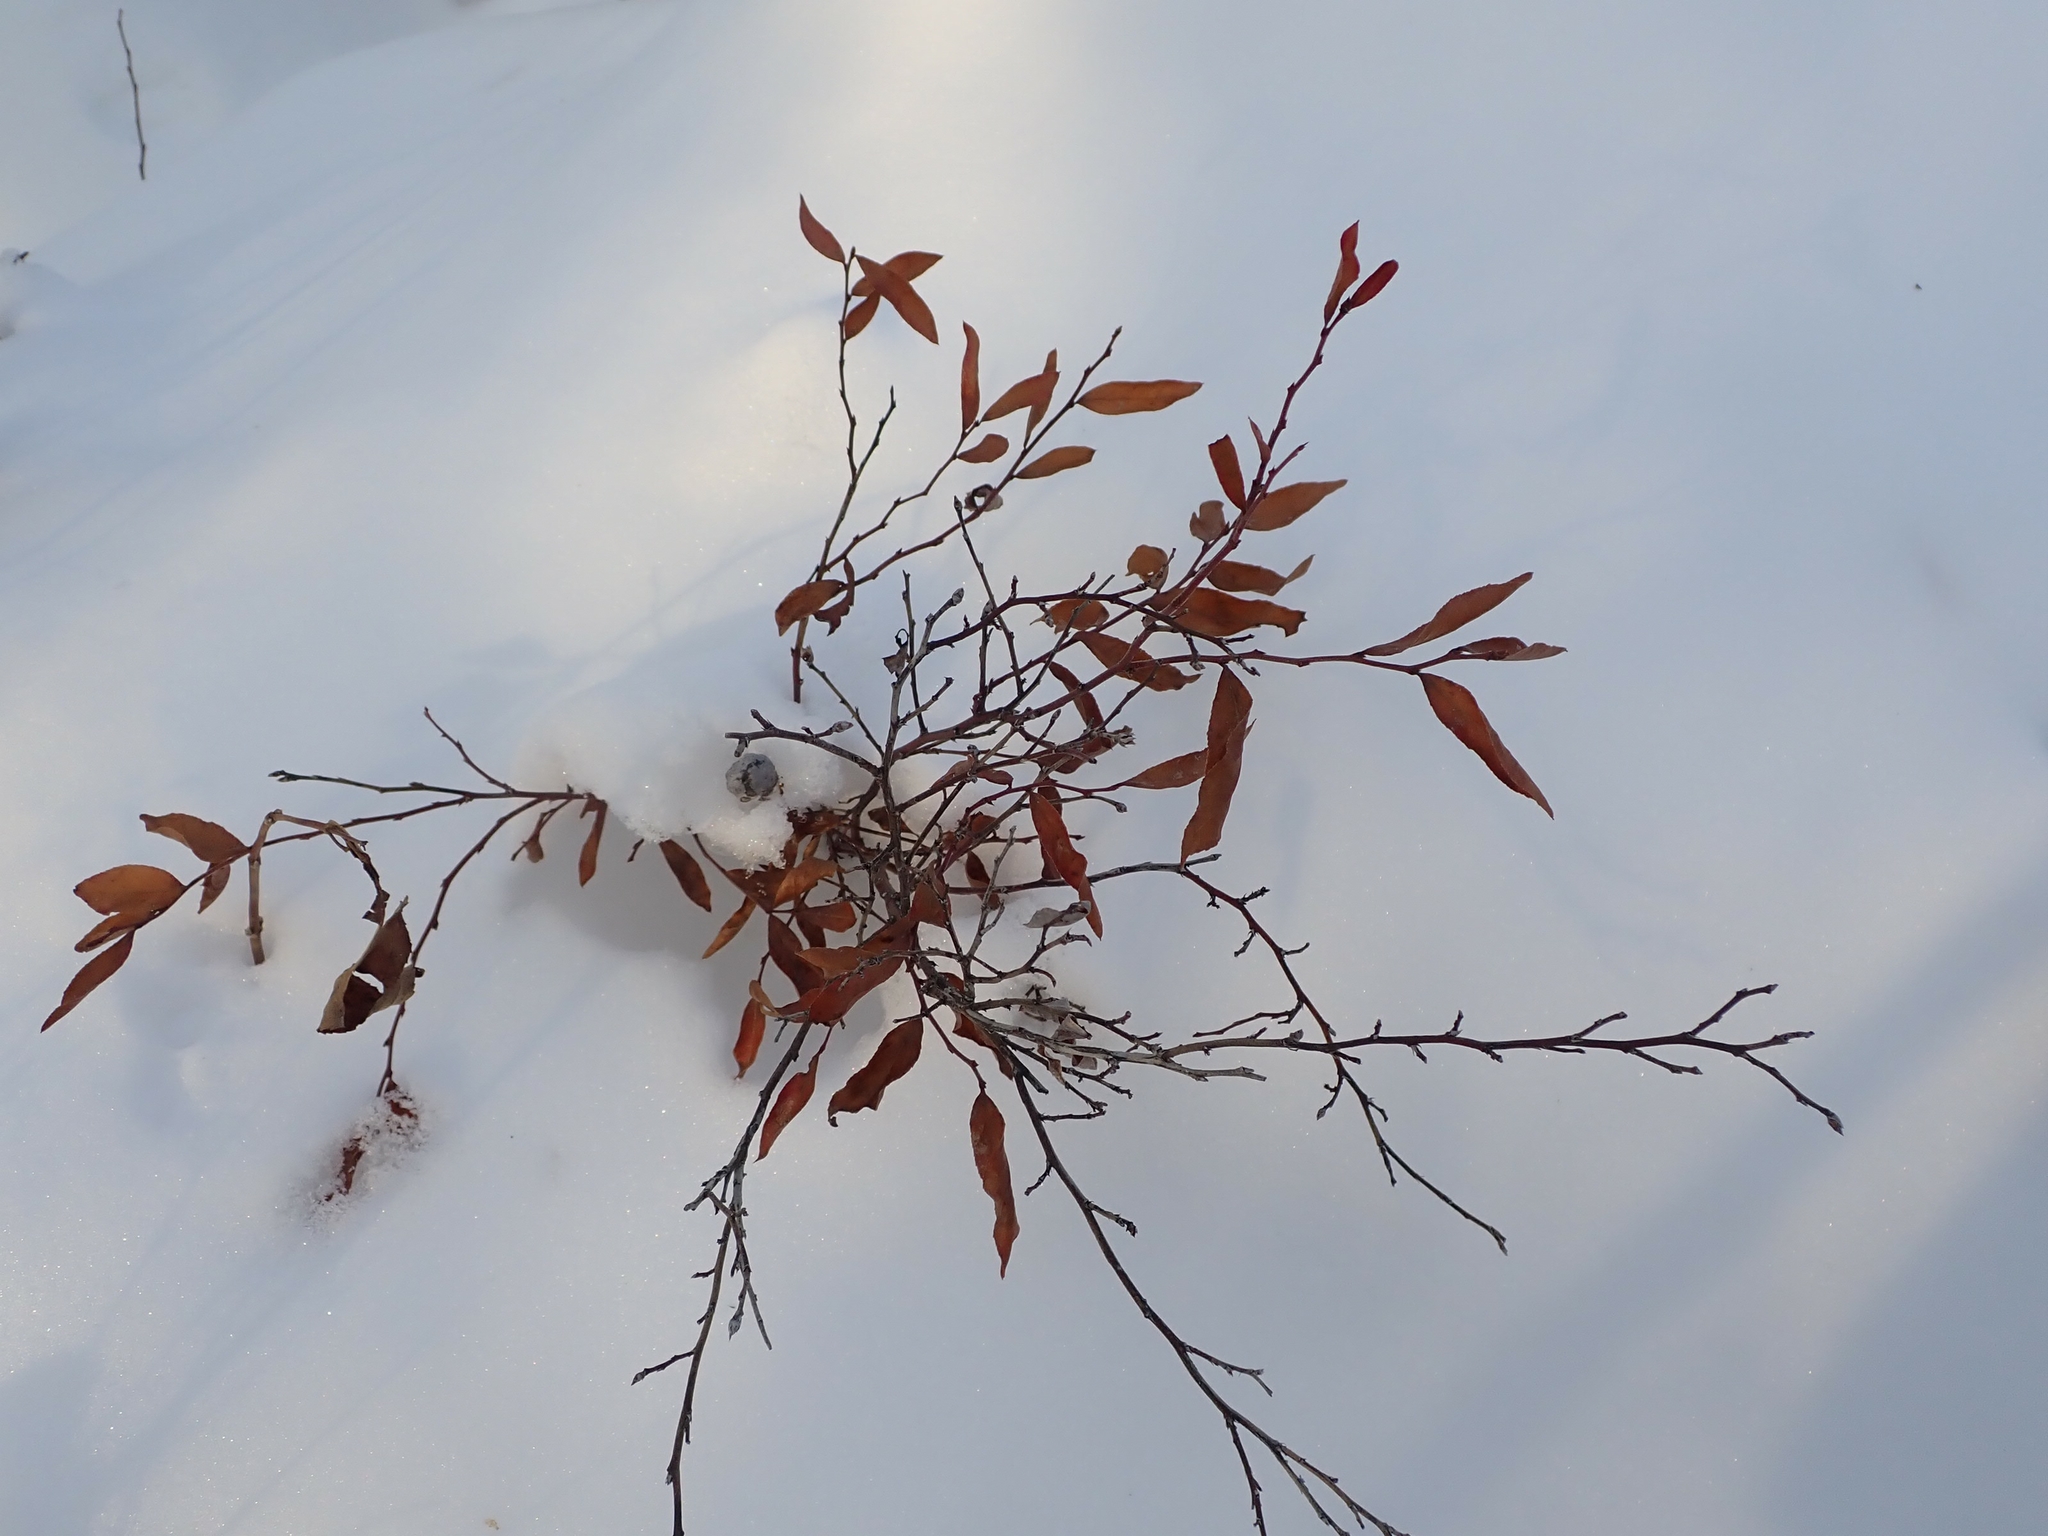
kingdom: Plantae
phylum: Tracheophyta
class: Magnoliopsida
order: Ericales
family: Ericaceae
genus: Vaccinium
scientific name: Vaccinium angustifolium
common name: Early lowbush blueberry
